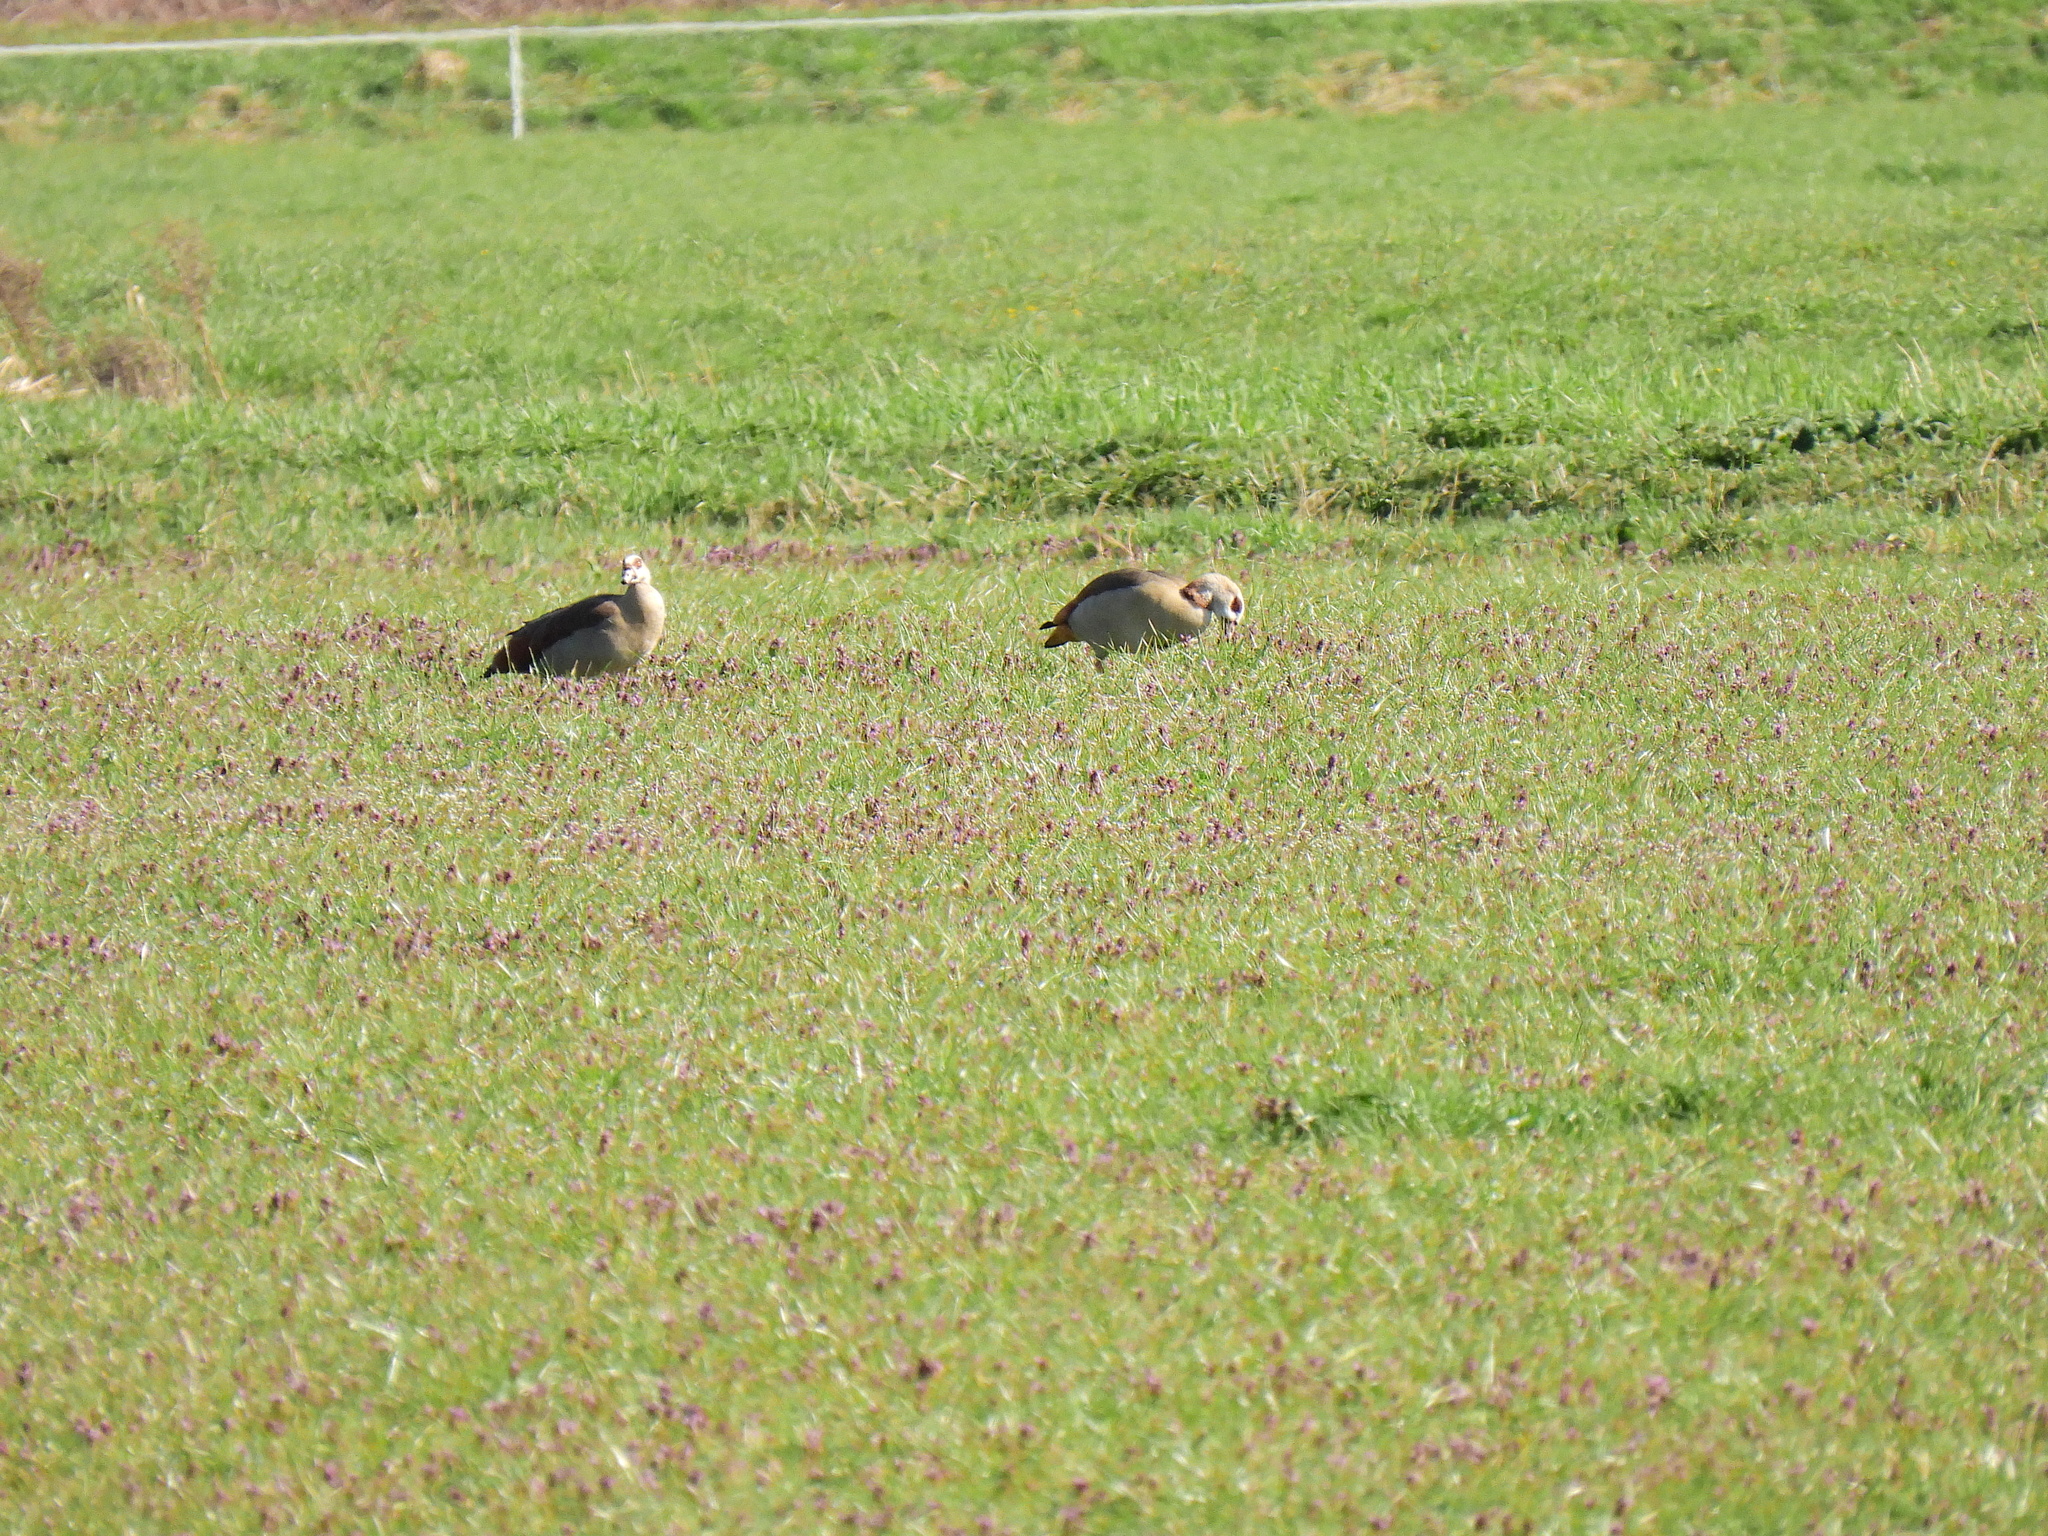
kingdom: Animalia
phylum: Chordata
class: Aves
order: Anseriformes
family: Anatidae
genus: Alopochen
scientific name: Alopochen aegyptiaca
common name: Egyptian goose
